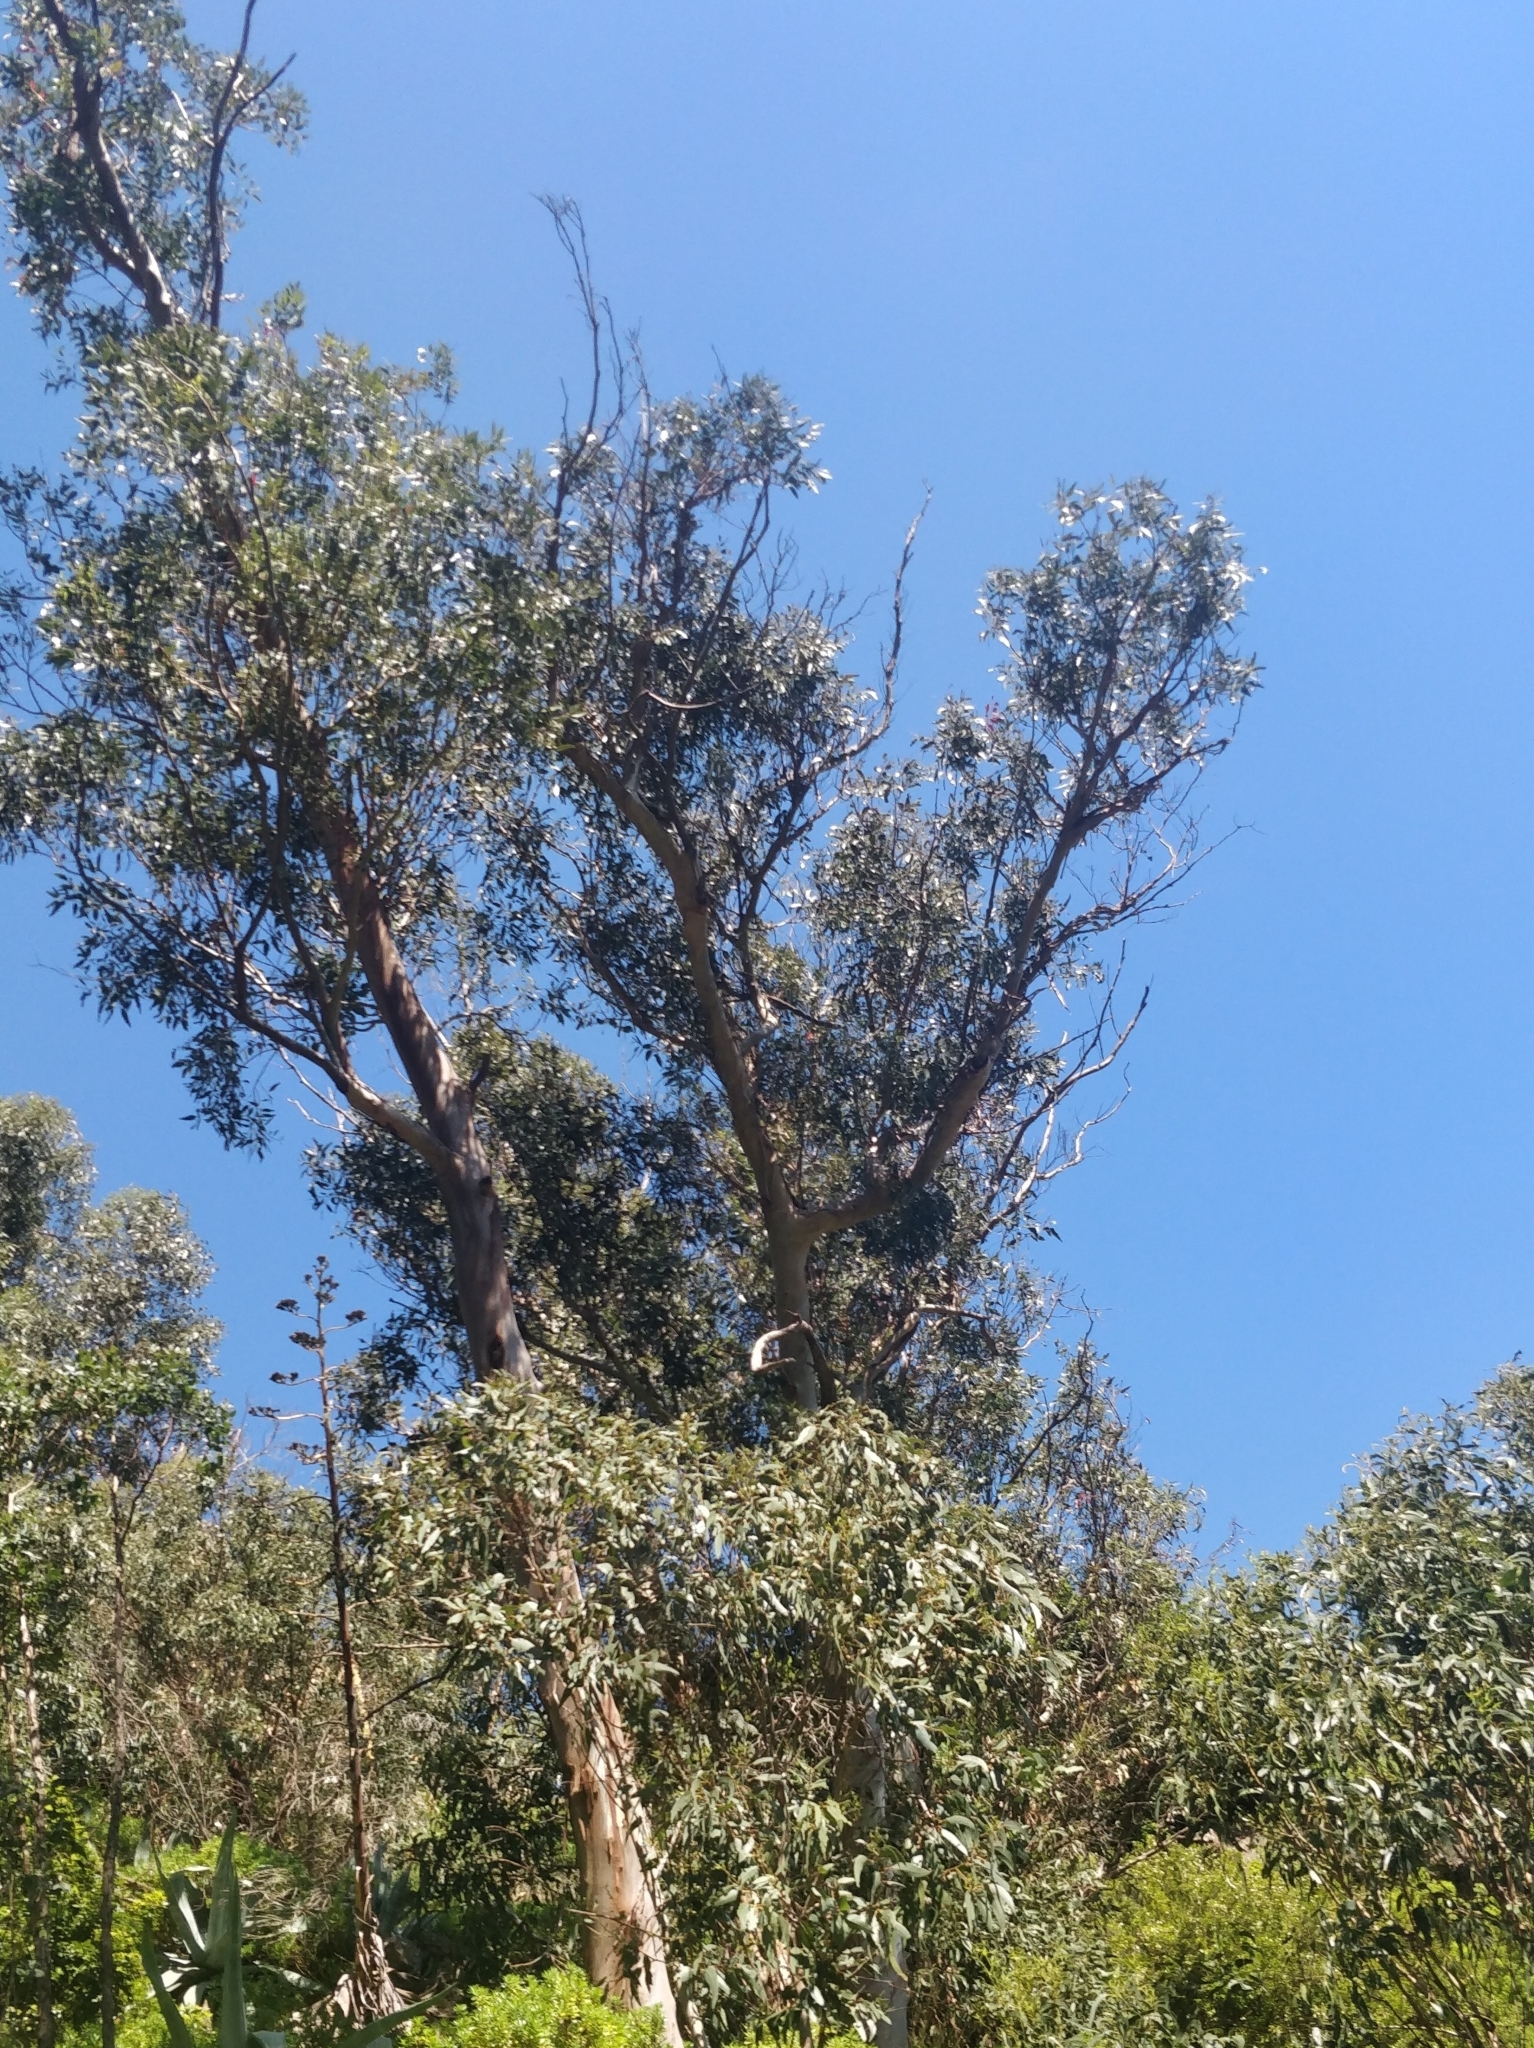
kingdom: Plantae
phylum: Tracheophyta
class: Magnoliopsida
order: Myrtales
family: Myrtaceae
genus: Eucalyptus
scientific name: Eucalyptus globulus
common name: Southern blue-gum
